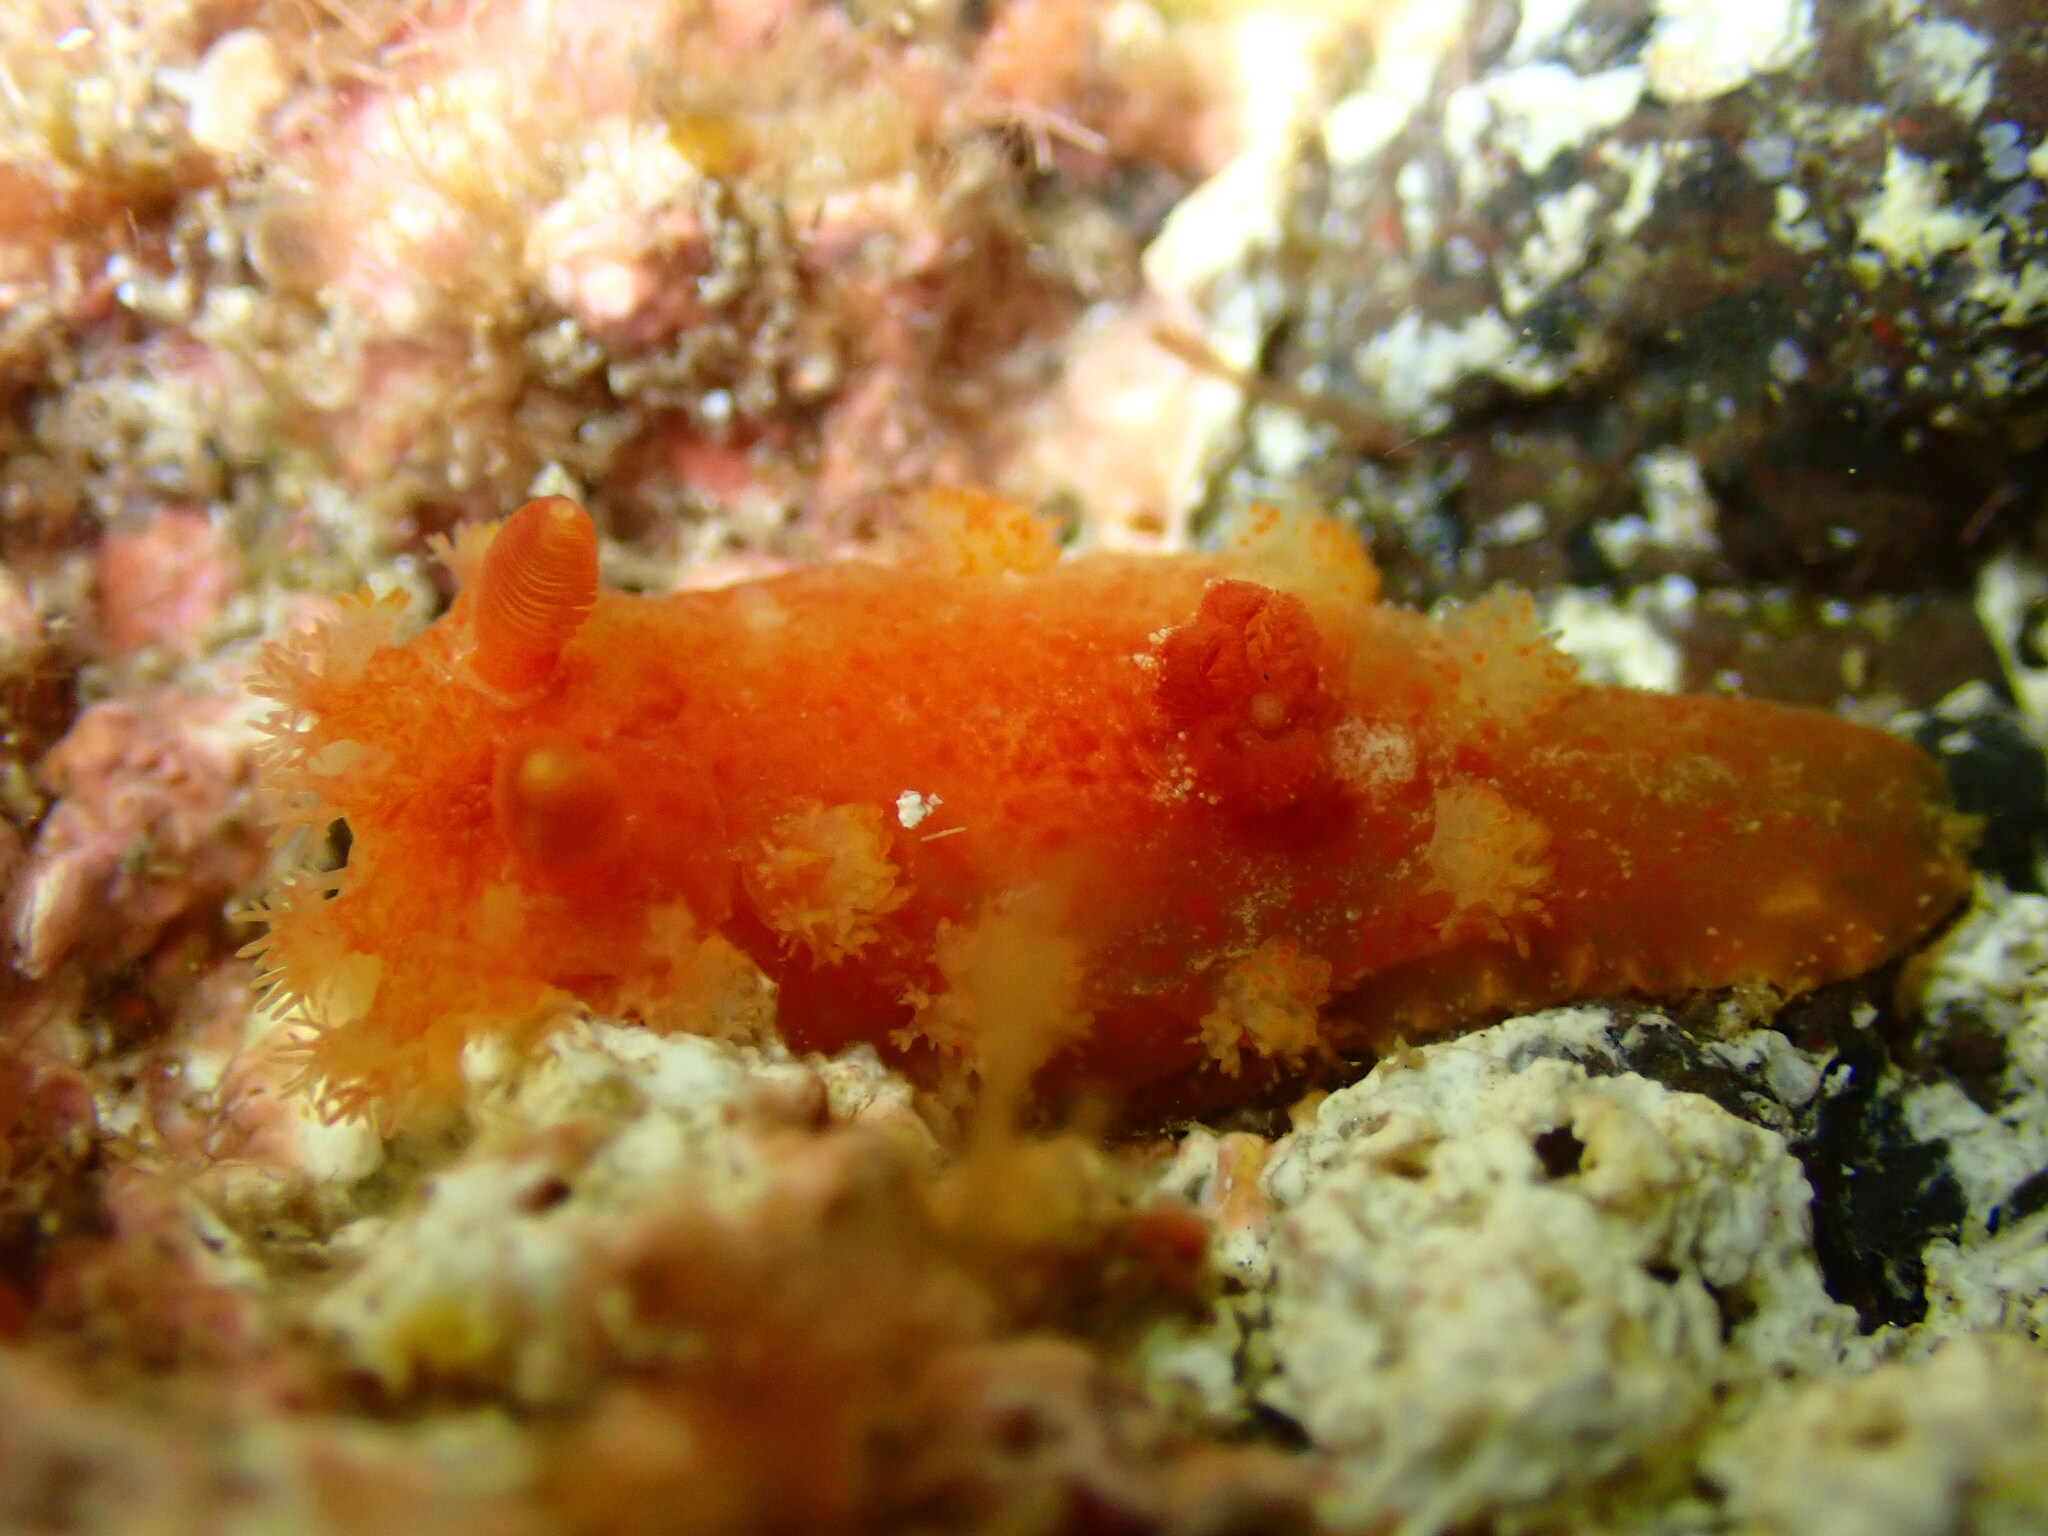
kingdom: Animalia
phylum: Mollusca
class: Gastropoda
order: Nudibranchia
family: Polyceridae
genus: Kaloplocamus
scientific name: Kaloplocamus ramosus
